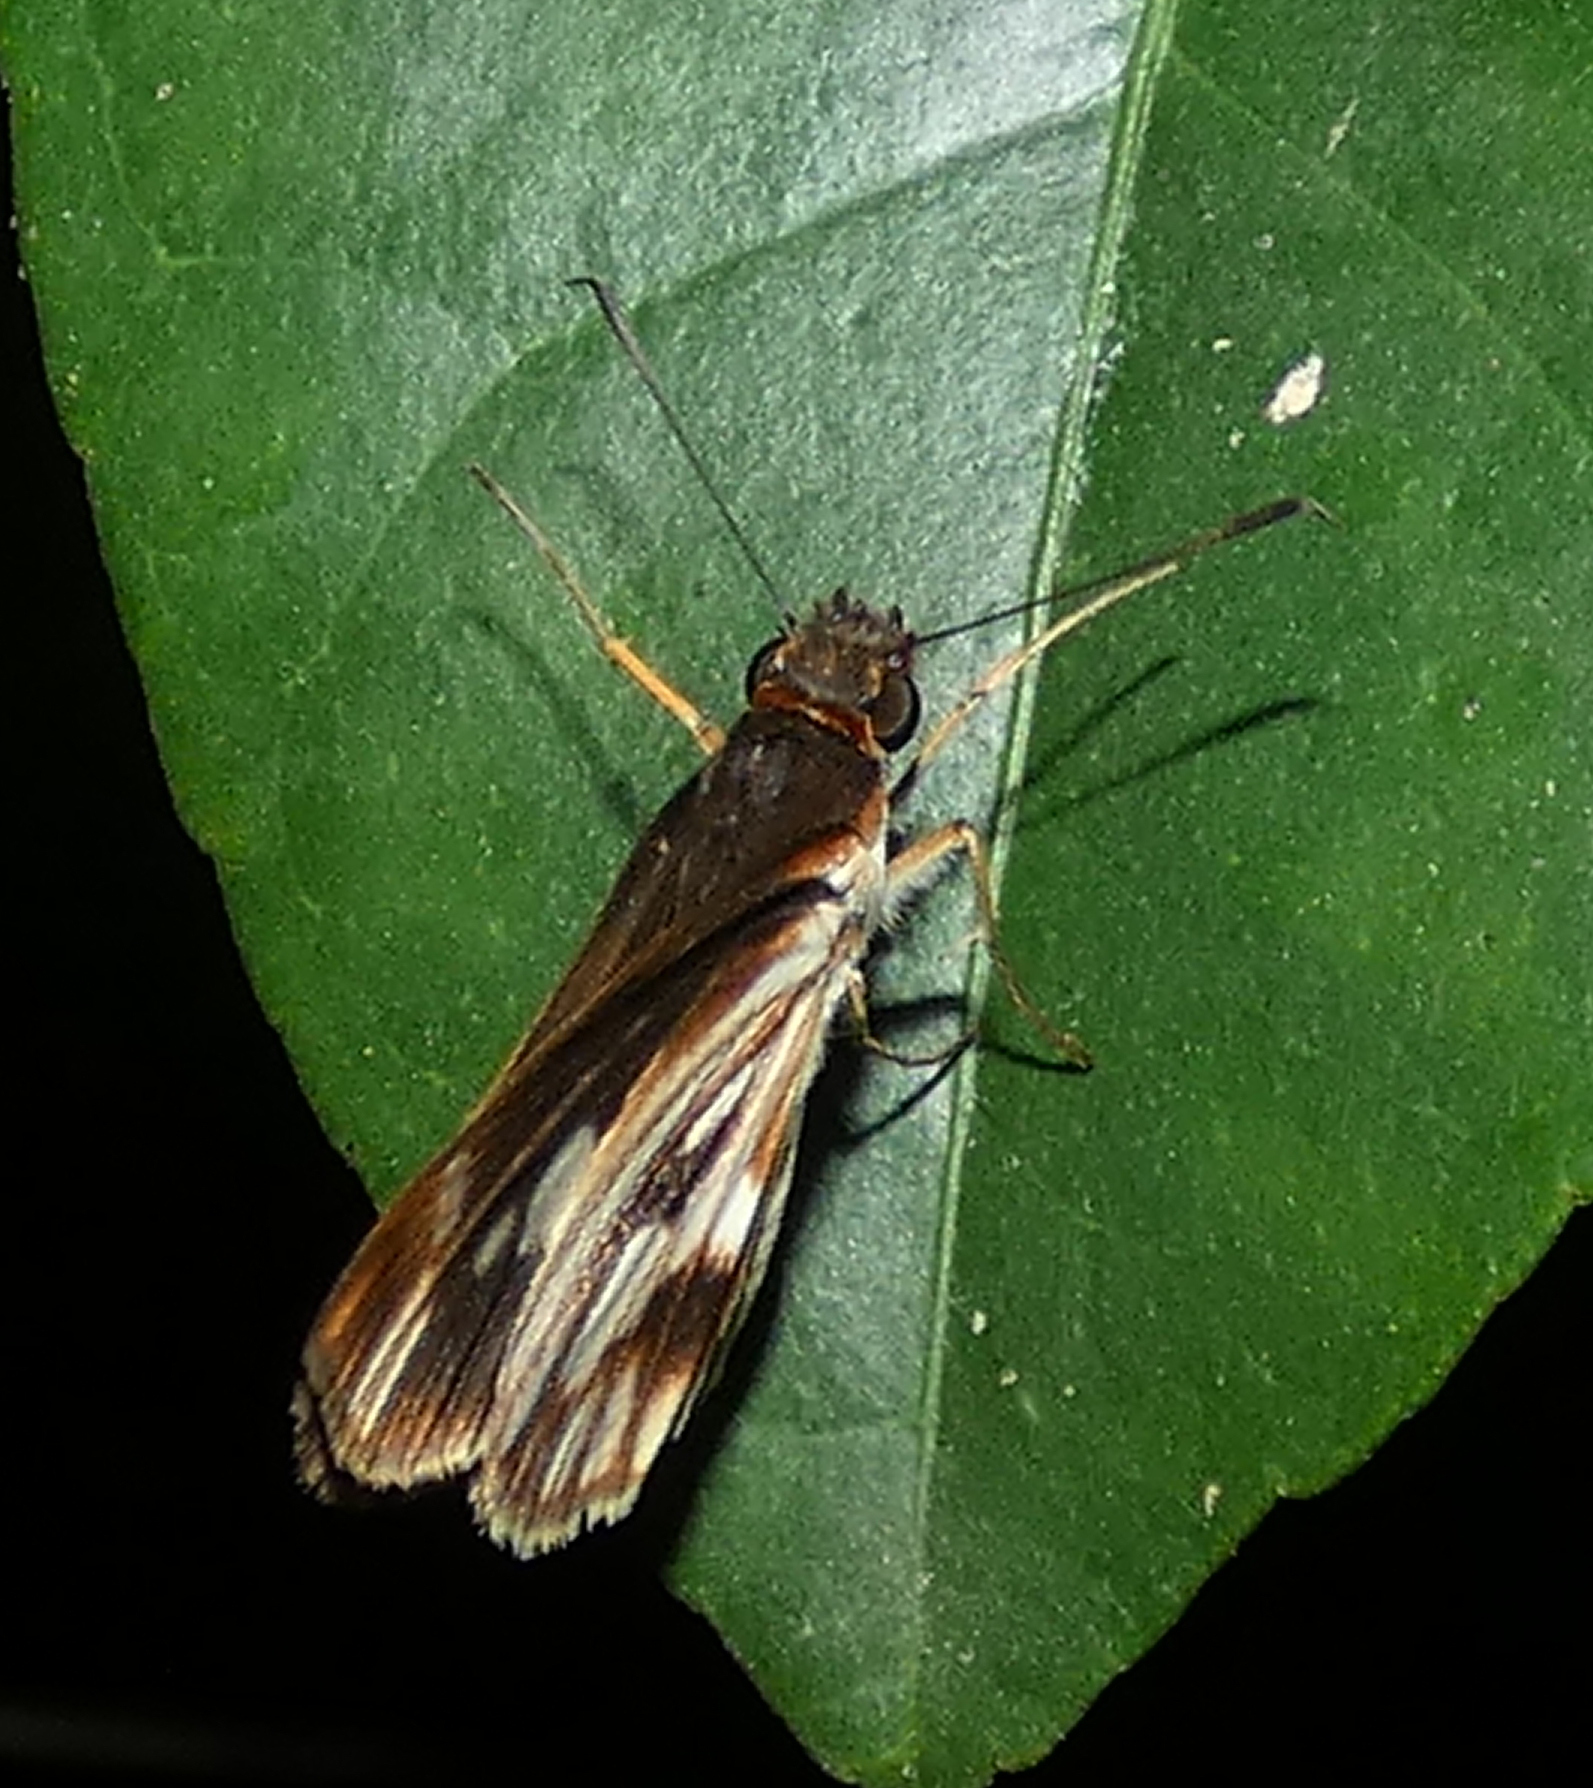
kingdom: Animalia
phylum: Arthropoda
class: Insecta
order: Lepidoptera
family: Hesperiidae
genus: Troyus
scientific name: Troyus fantasos
